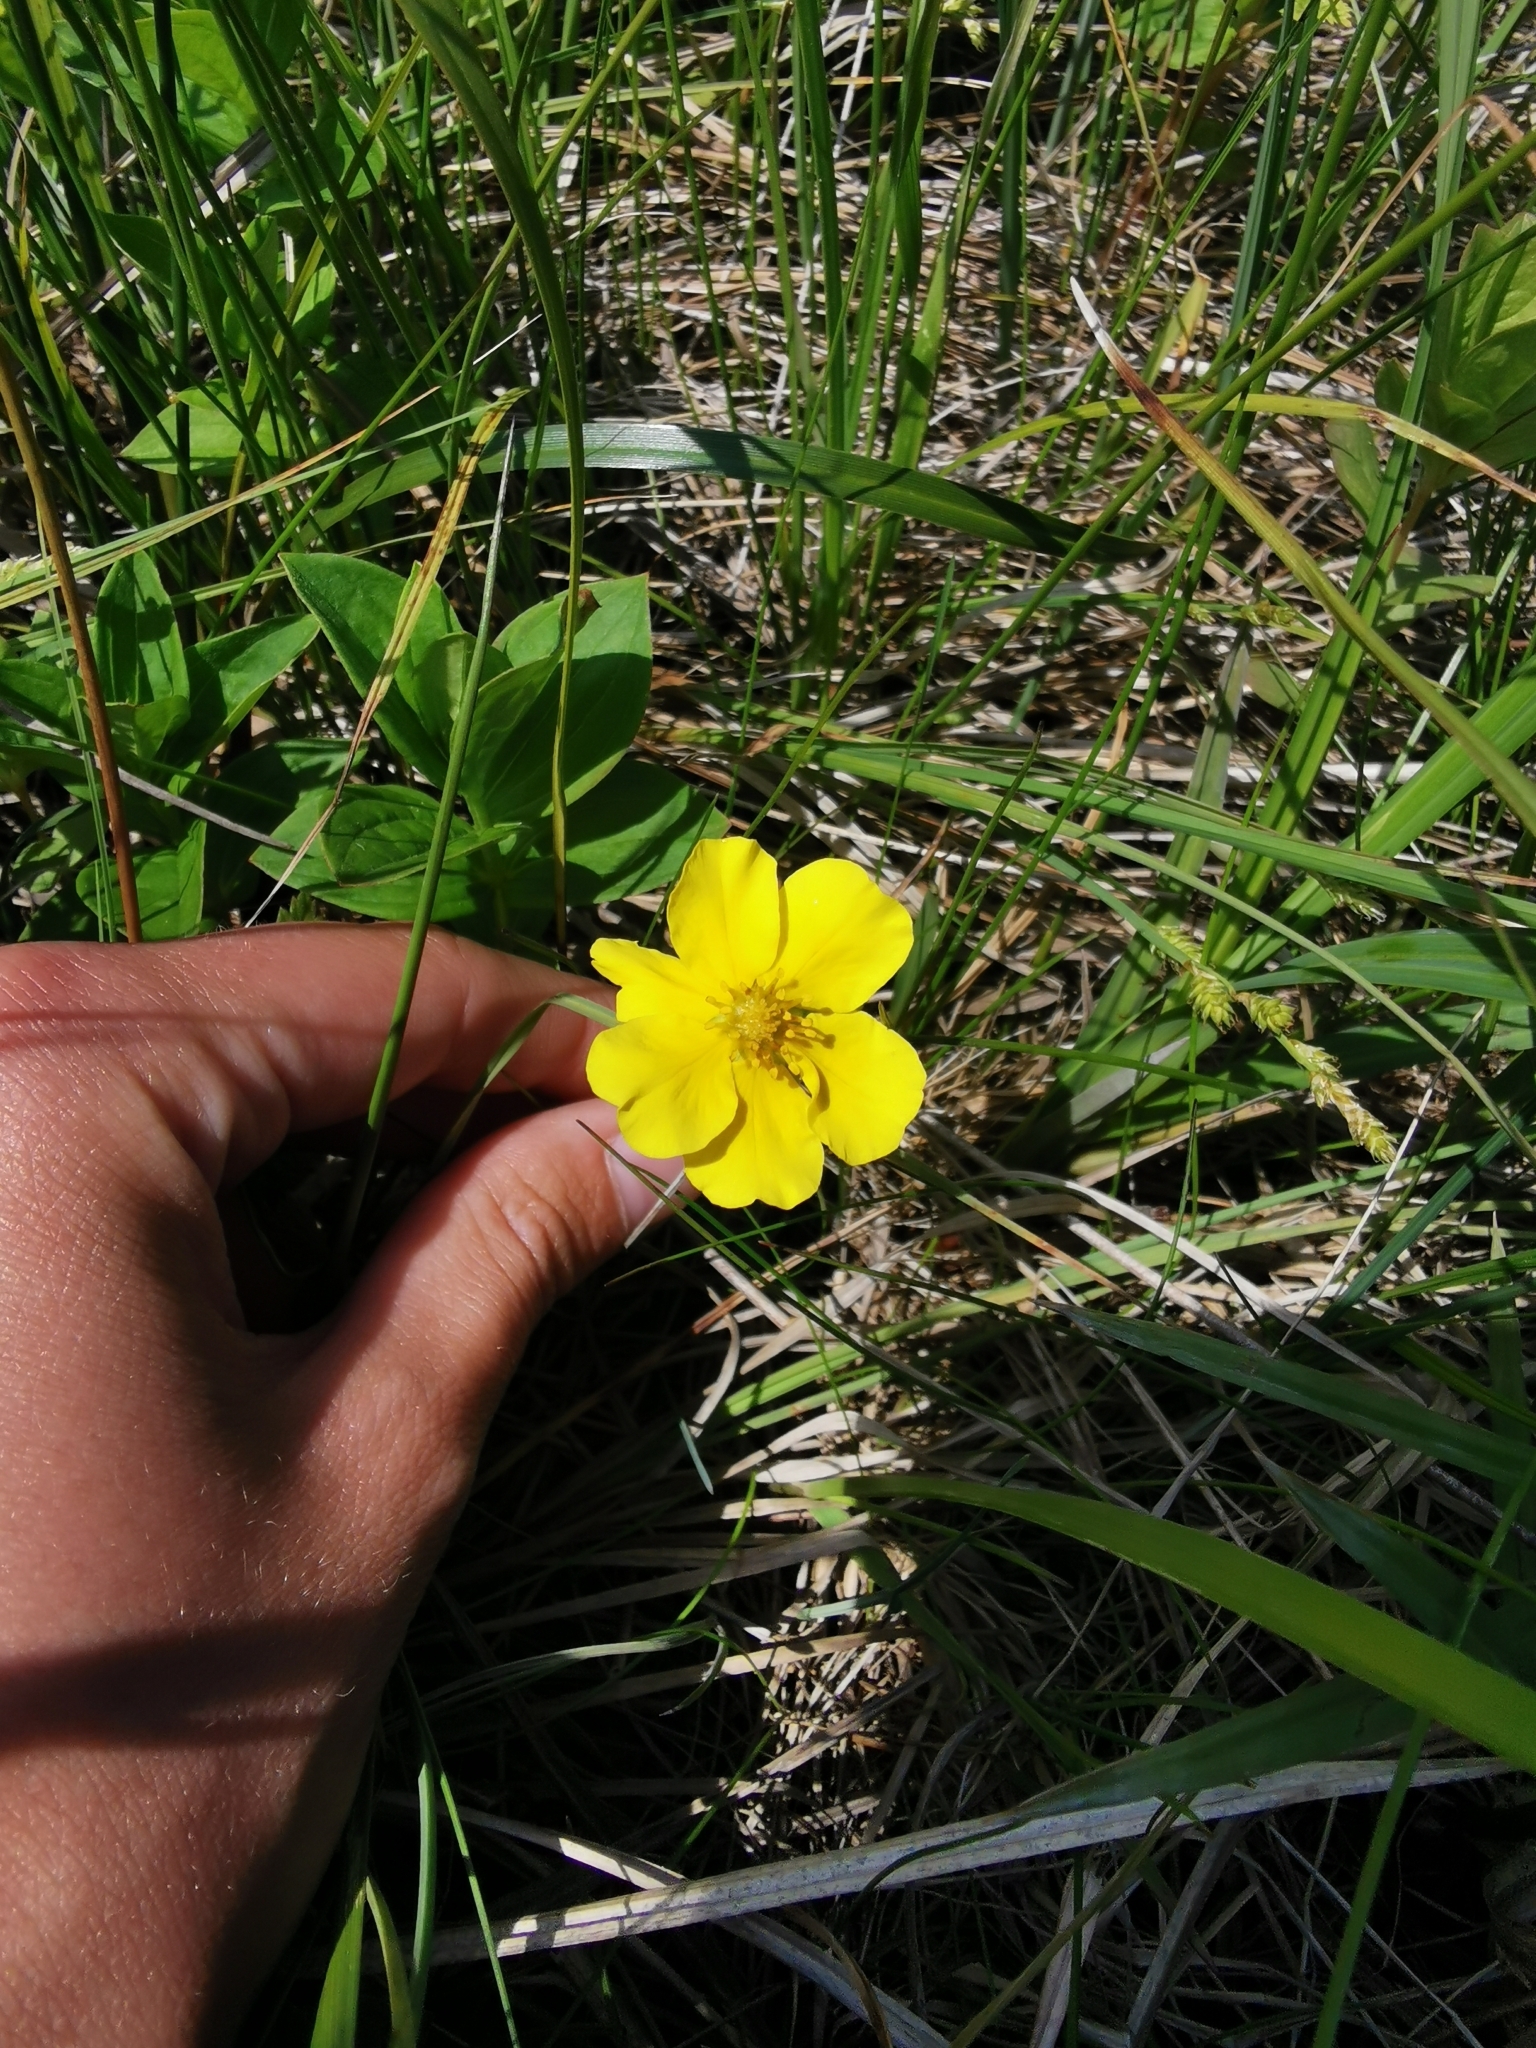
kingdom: Plantae
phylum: Tracheophyta
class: Magnoliopsida
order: Rosales
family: Rosaceae
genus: Argentina
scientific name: Argentina anserina
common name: Common silverweed
